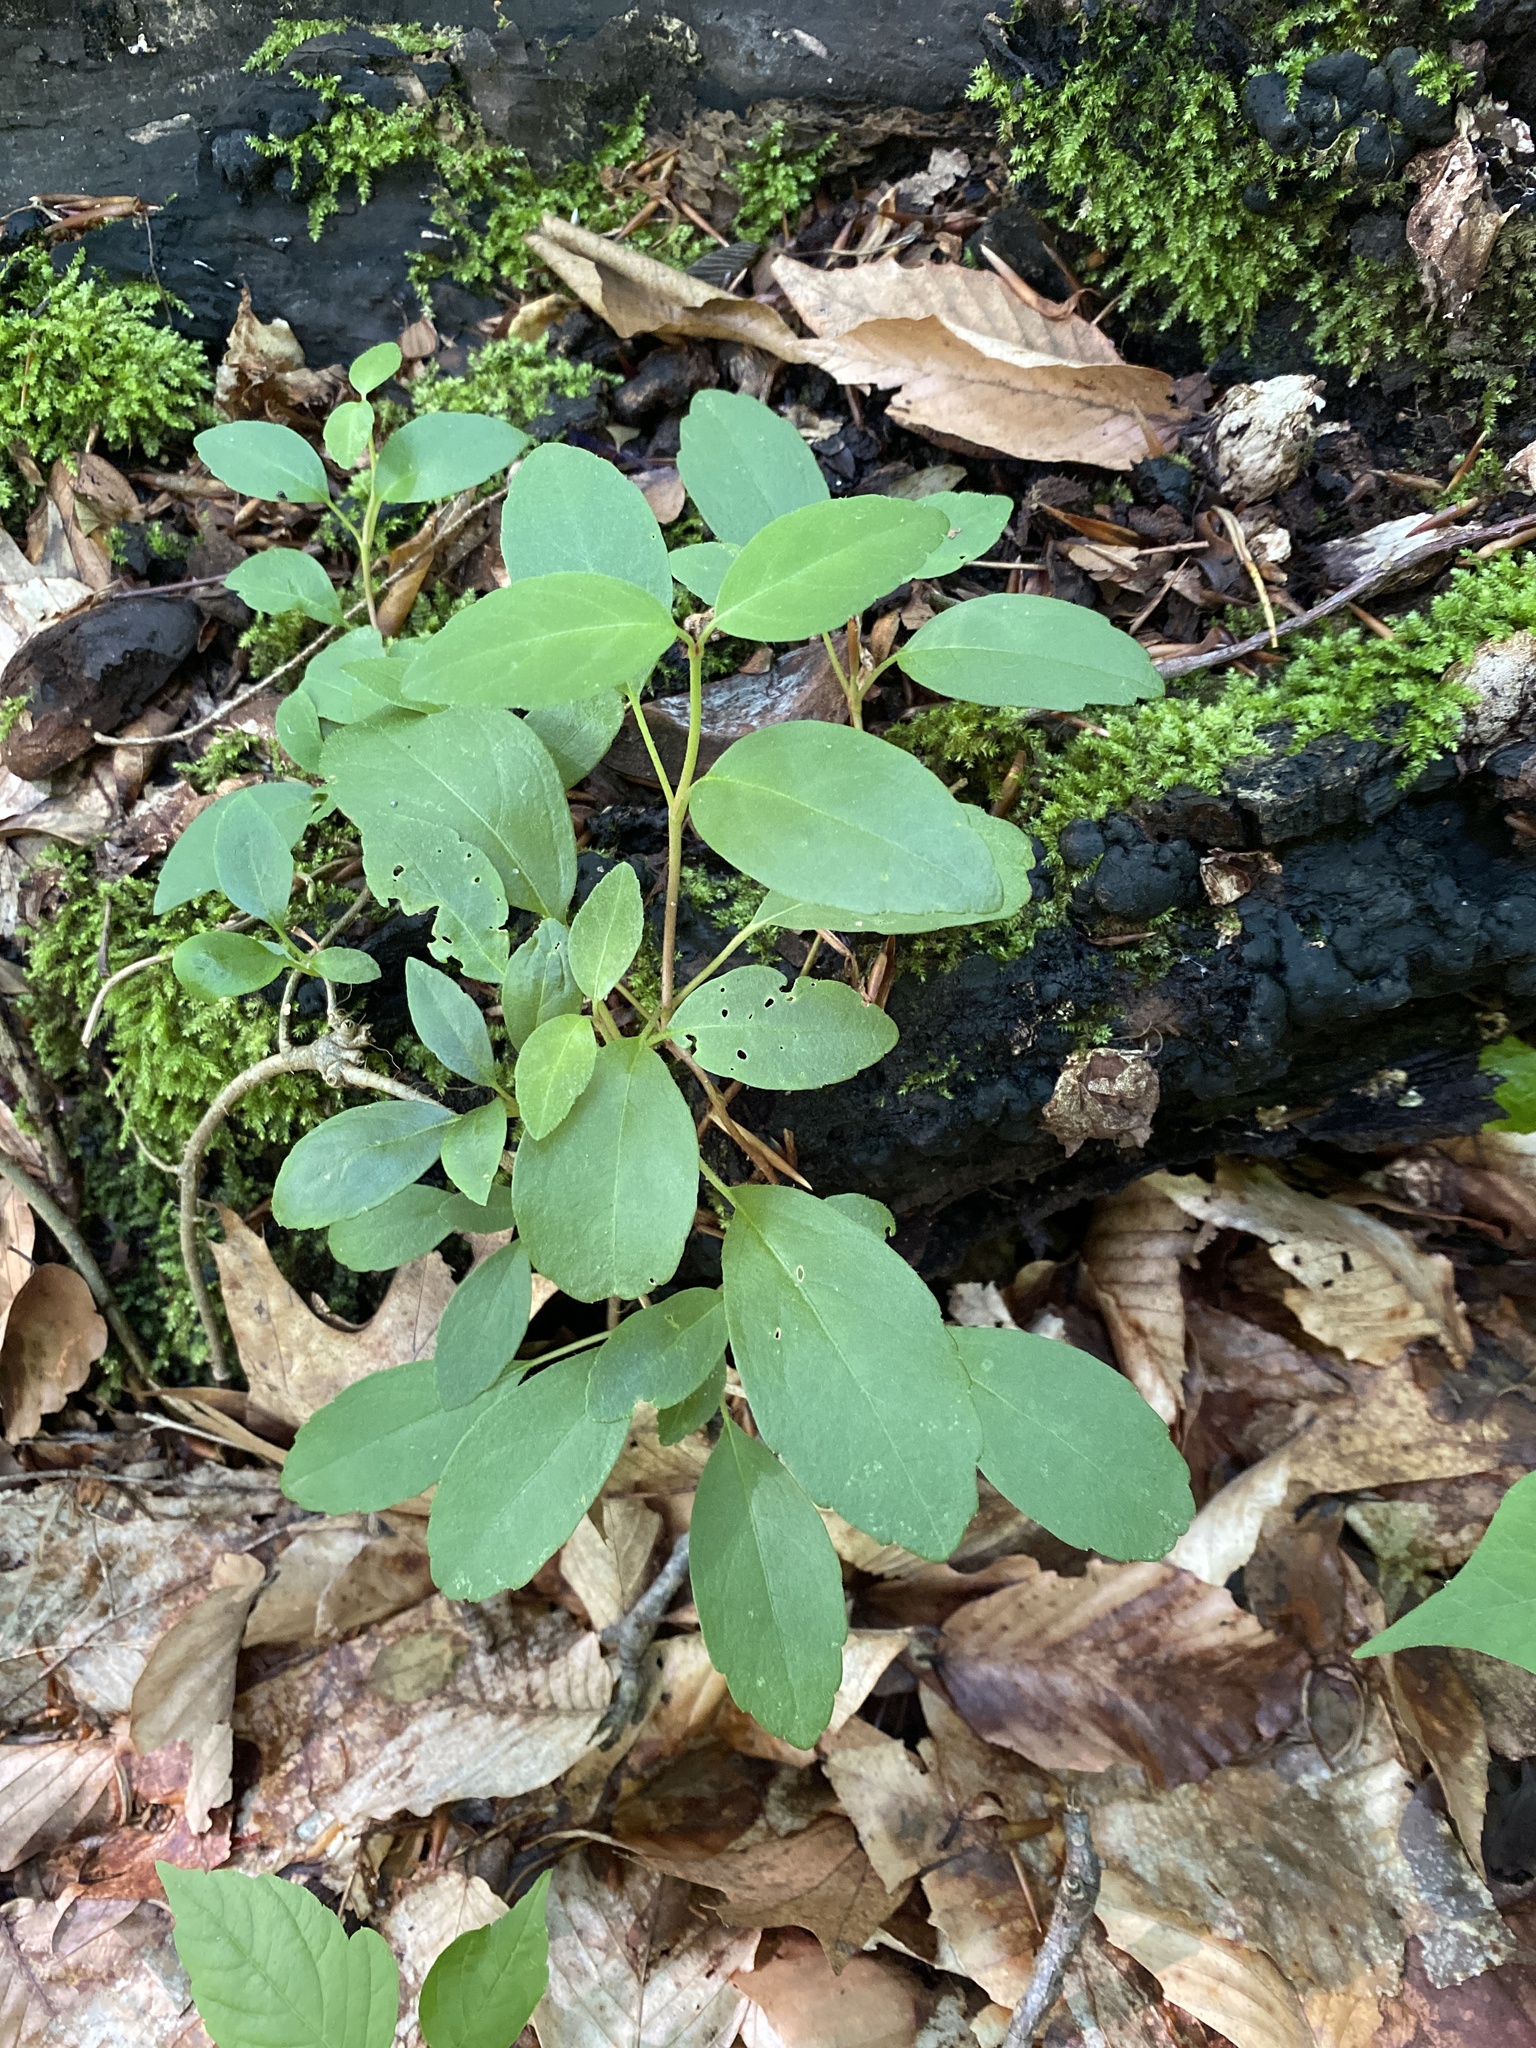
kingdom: Plantae
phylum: Tracheophyta
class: Magnoliopsida
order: Cornales
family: Hydrangeaceae
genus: Hydrangea
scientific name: Hydrangea barbara
